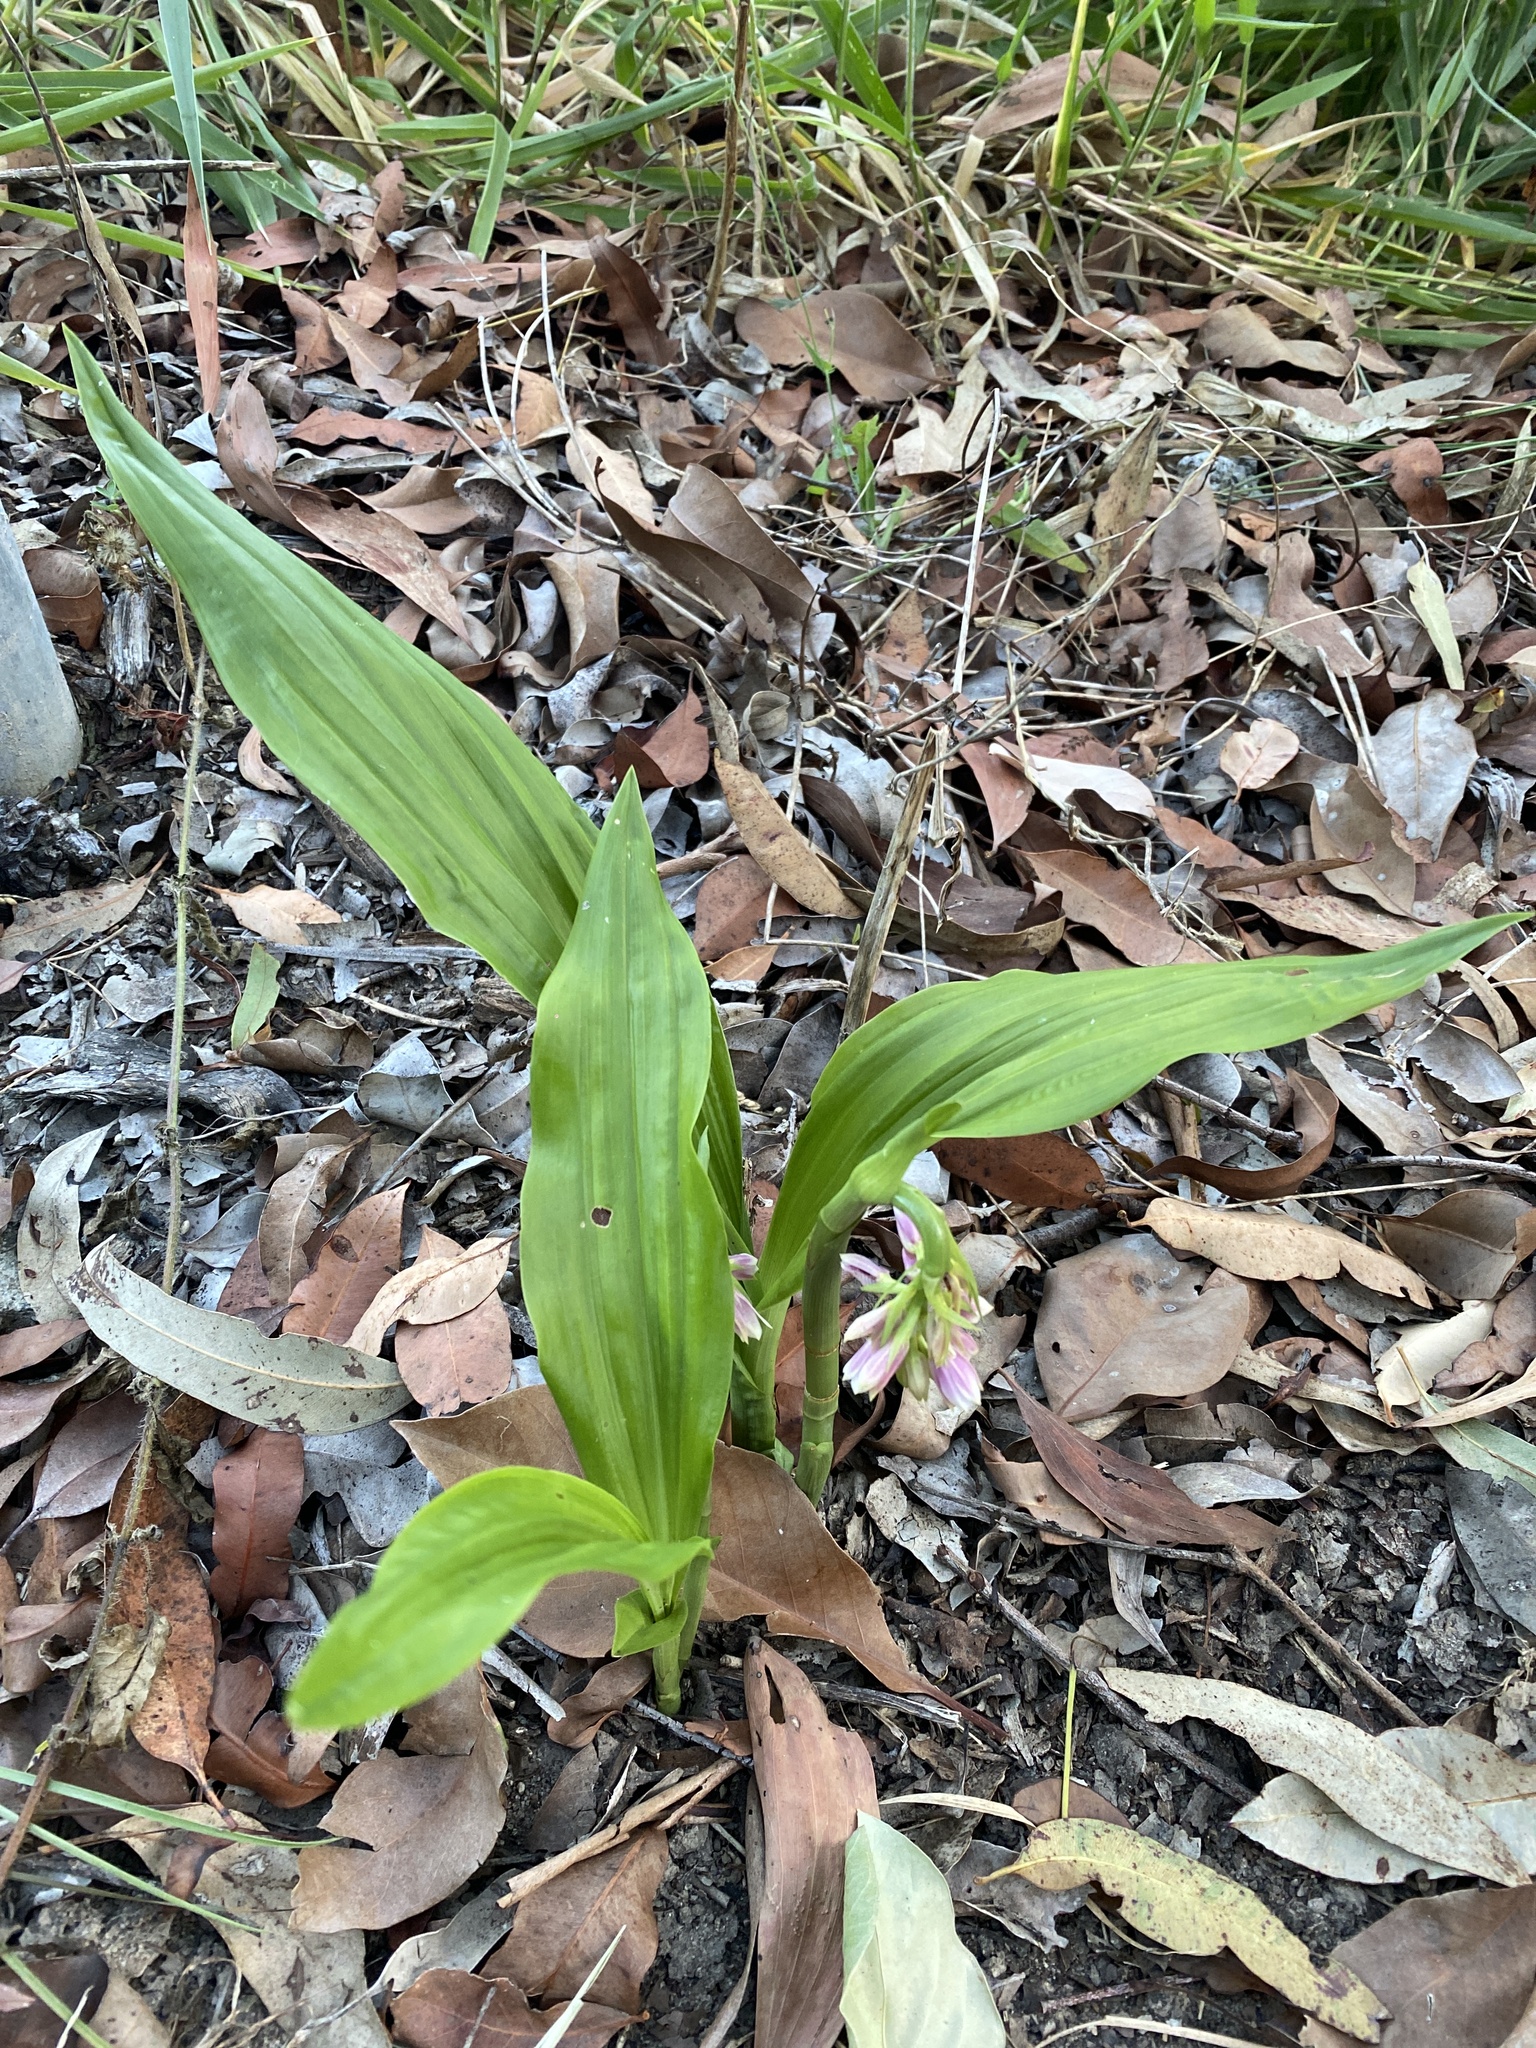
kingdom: Plantae
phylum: Tracheophyta
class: Liliopsida
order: Asparagales
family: Orchidaceae
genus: Eulophia
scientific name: Eulophia cernua
